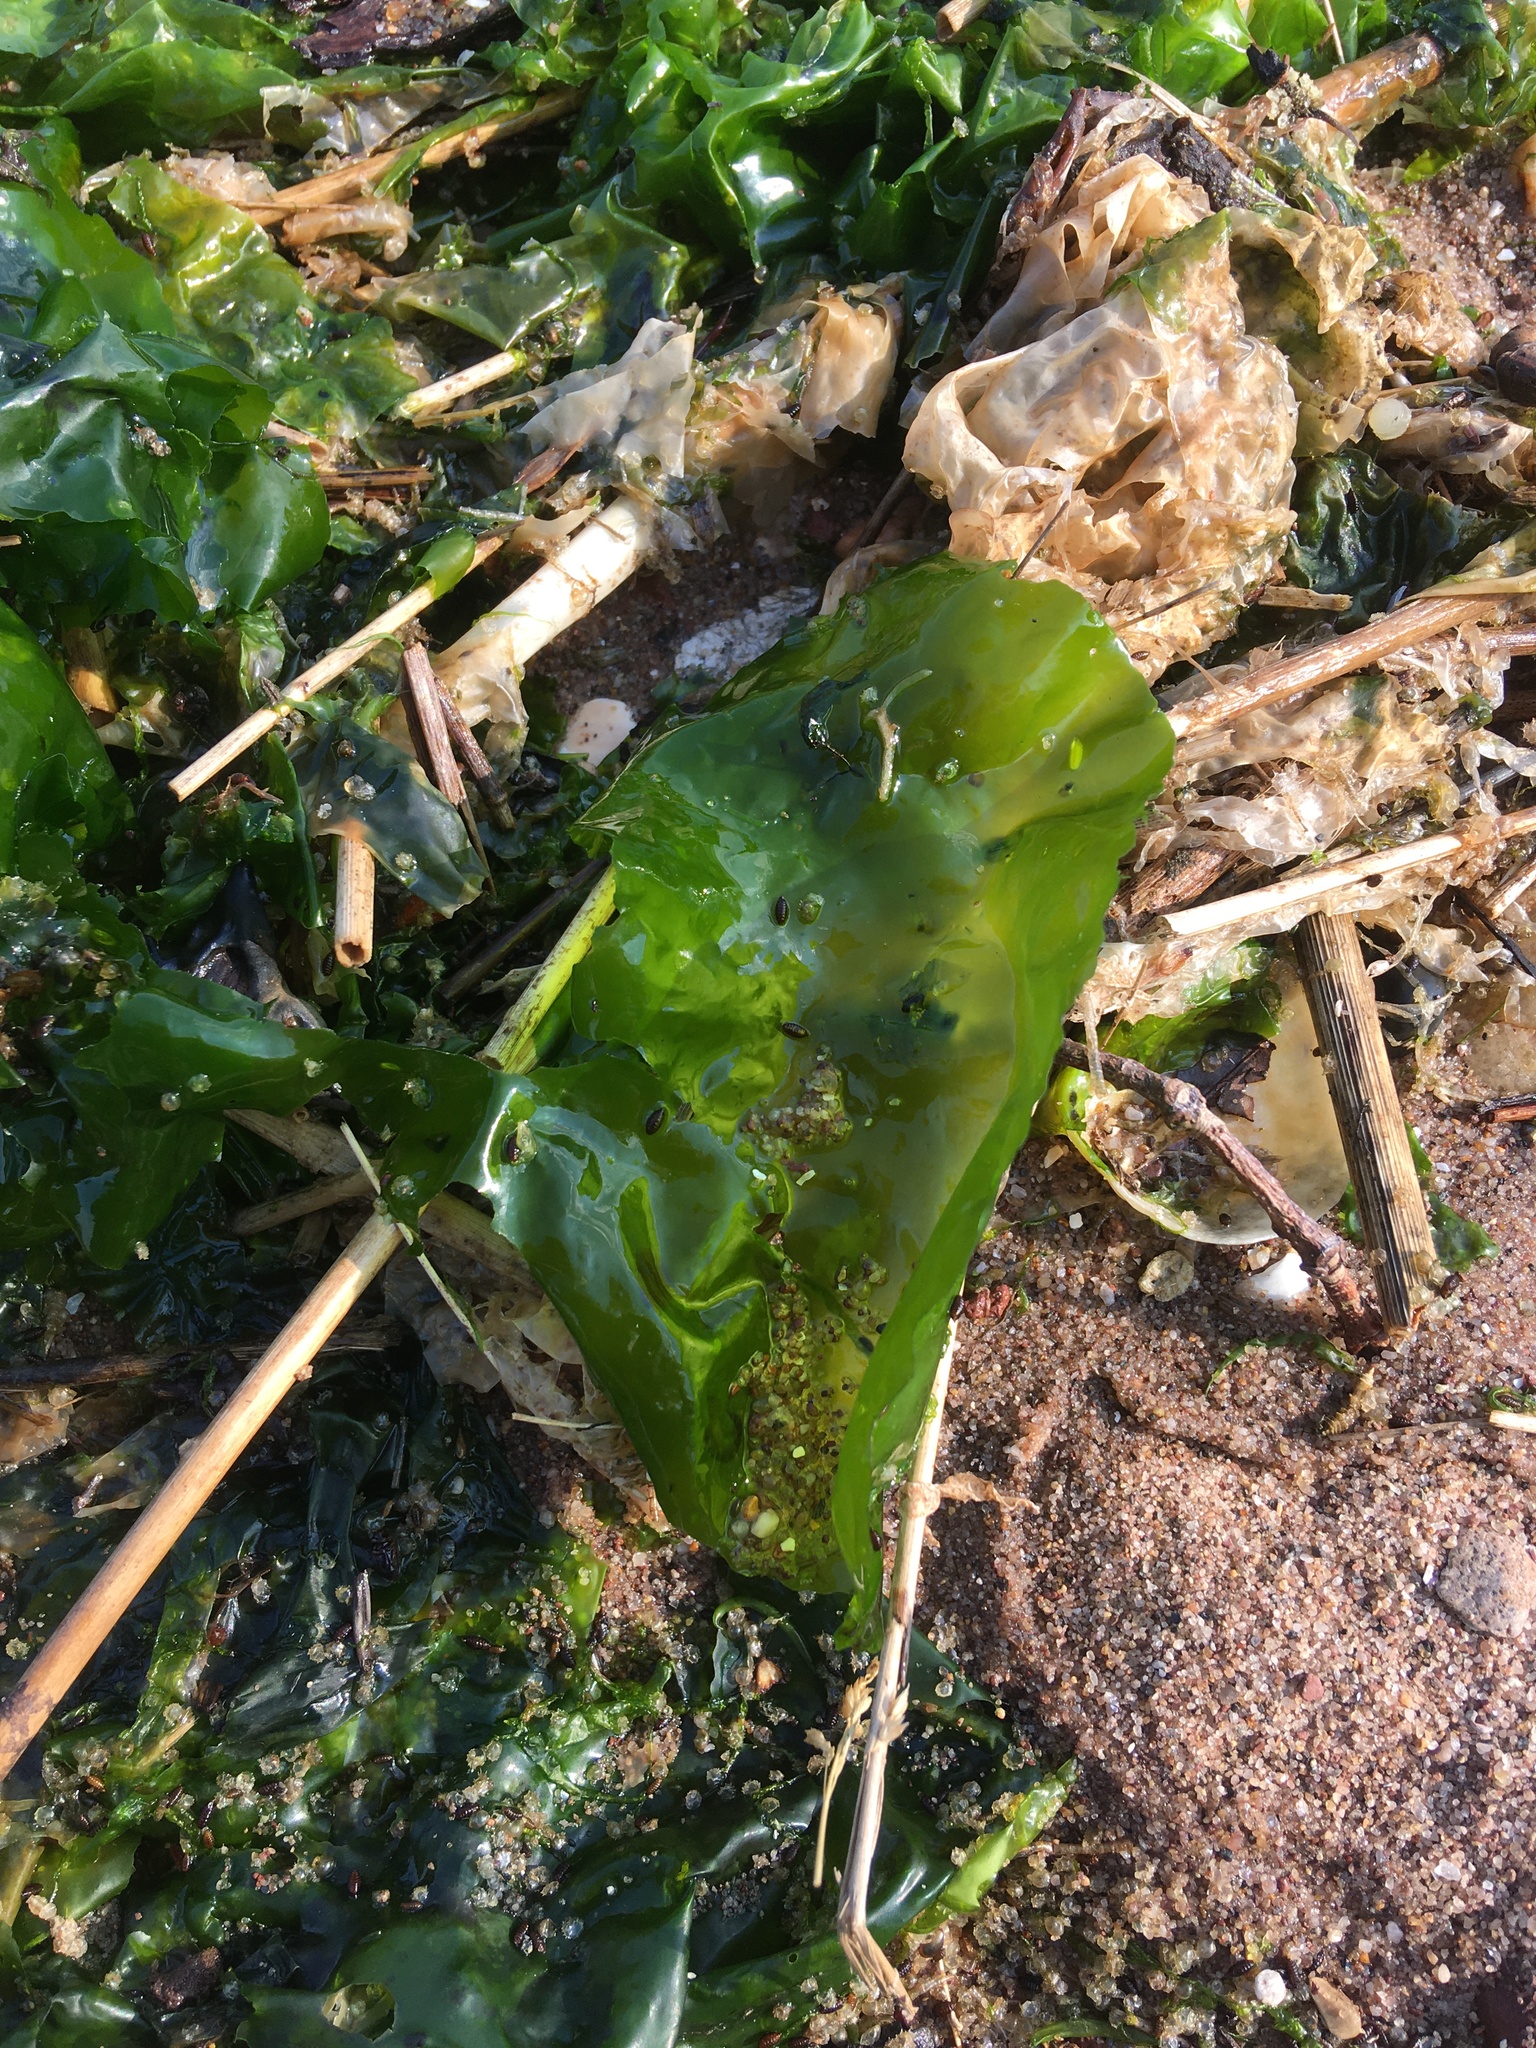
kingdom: Plantae
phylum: Chlorophyta
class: Ulvophyceae
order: Ulvales
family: Ulvaceae
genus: Ulva
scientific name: Ulva lactuca
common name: Sea lettuce
